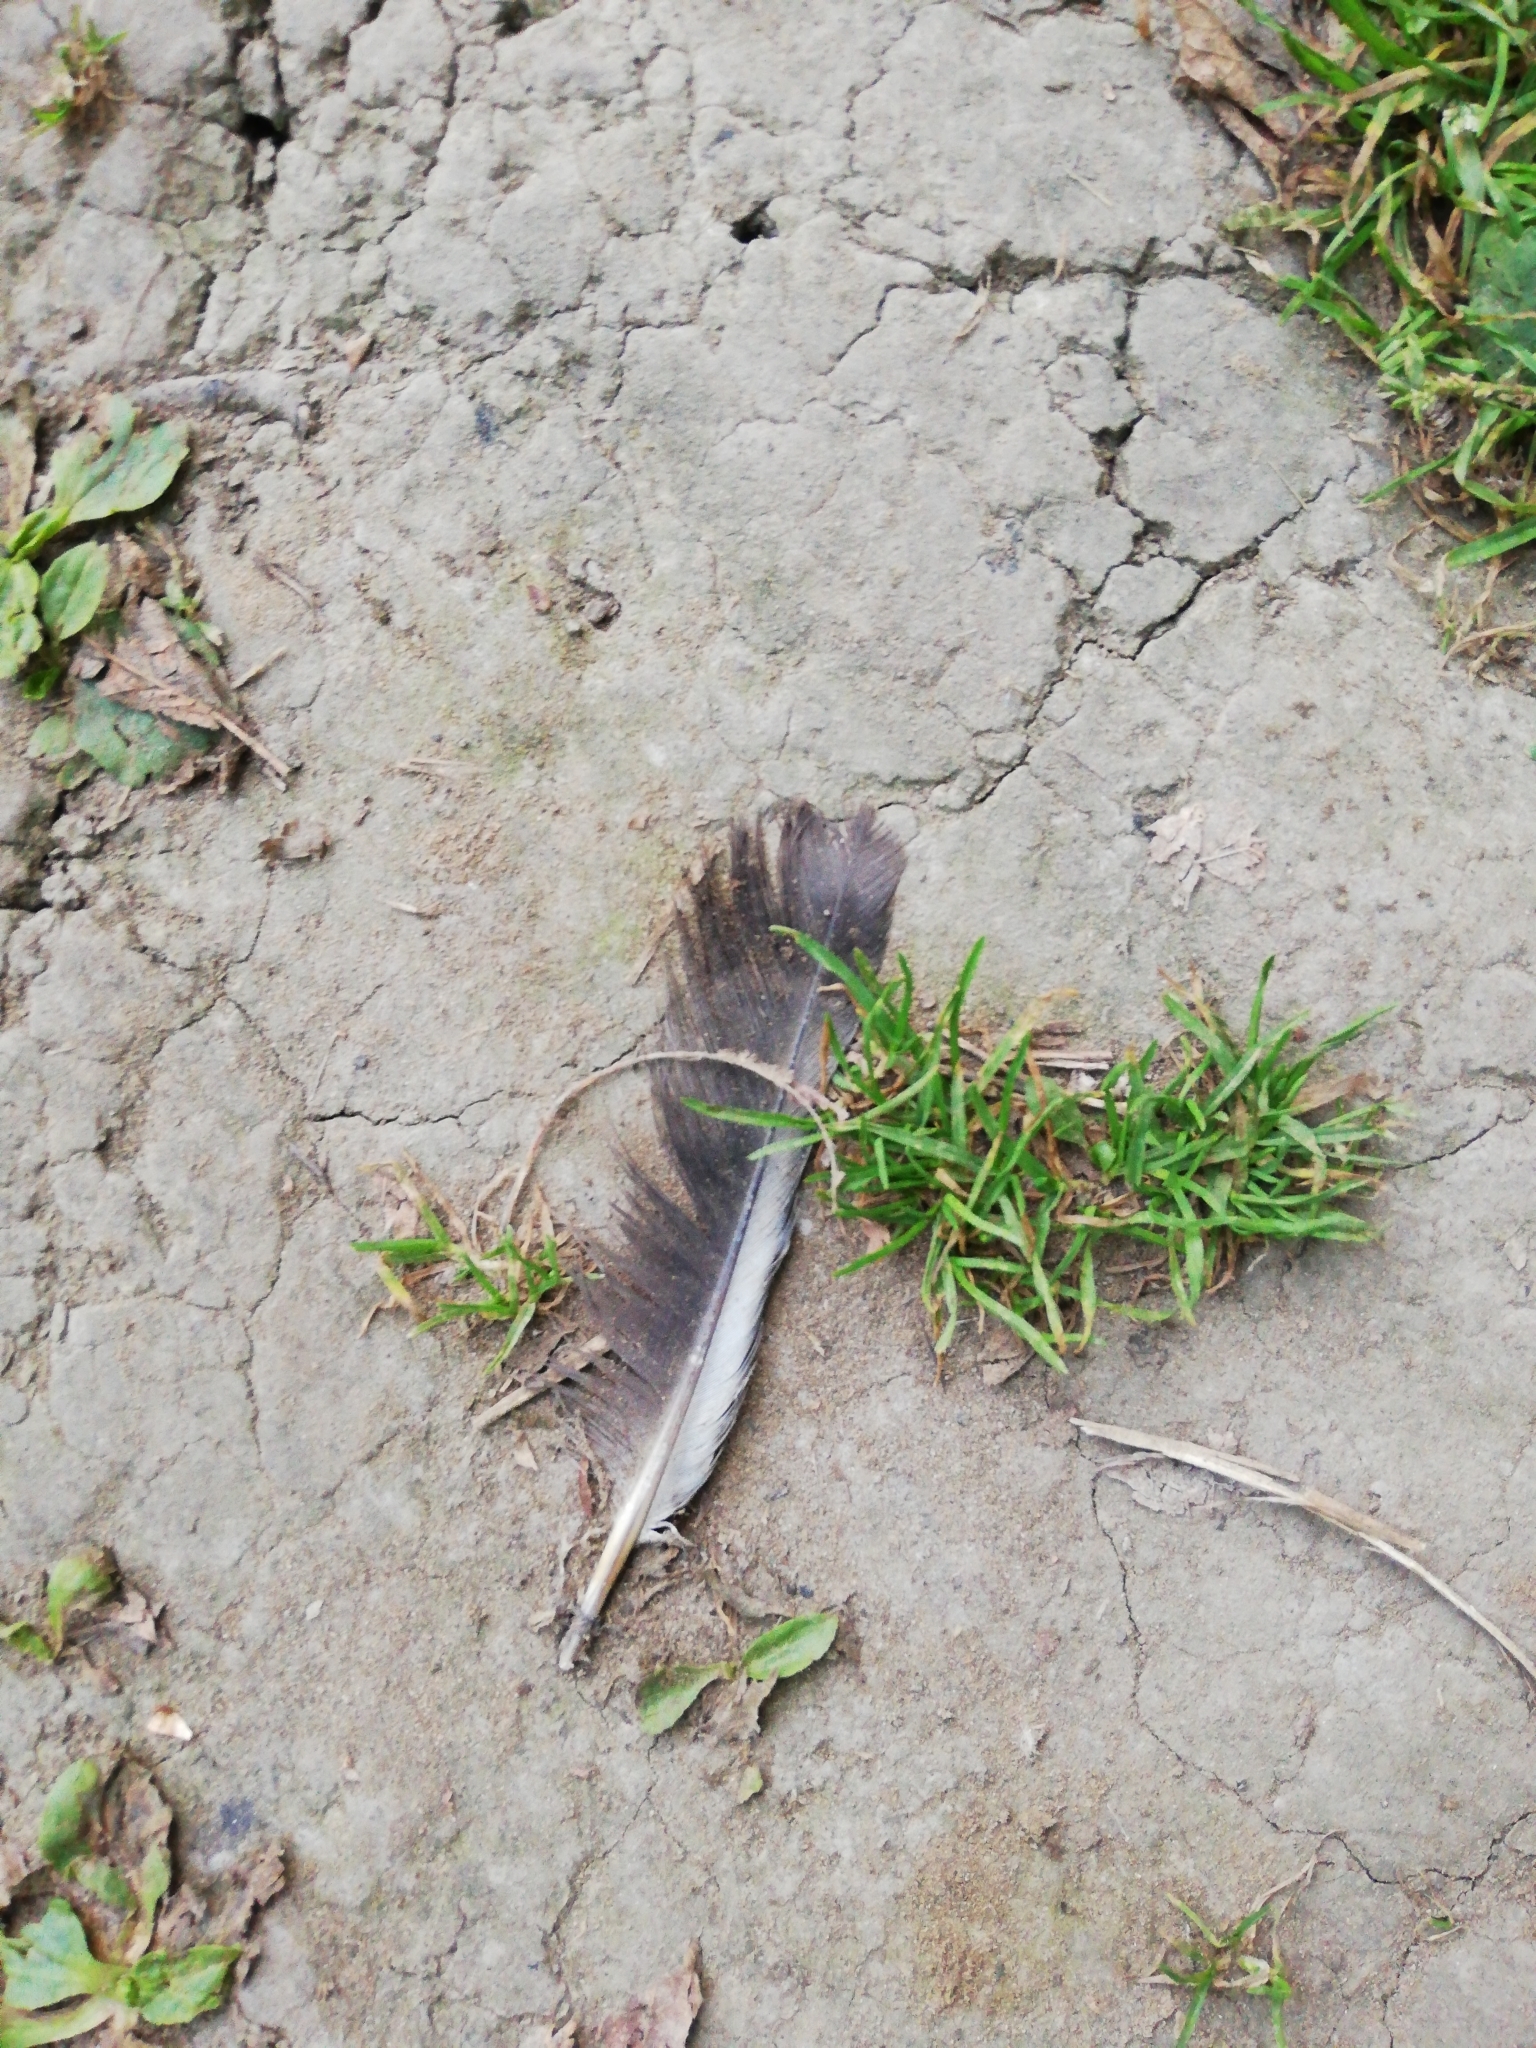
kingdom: Animalia
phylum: Chordata
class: Aves
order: Columbiformes
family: Columbidae
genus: Columba
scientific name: Columba livia
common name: Rock pigeon
